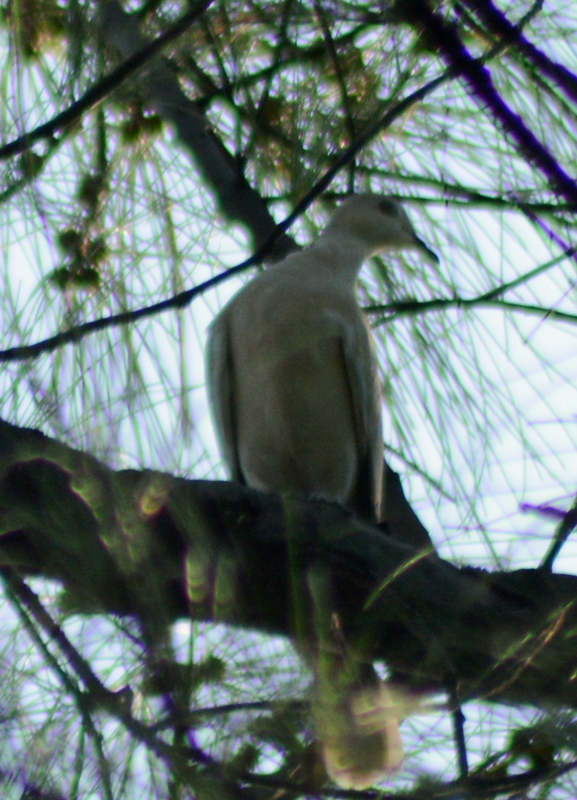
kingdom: Animalia
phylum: Chordata
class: Aves
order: Columbiformes
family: Columbidae
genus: Streptopelia
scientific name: Streptopelia decaocto
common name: Eurasian collared dove
